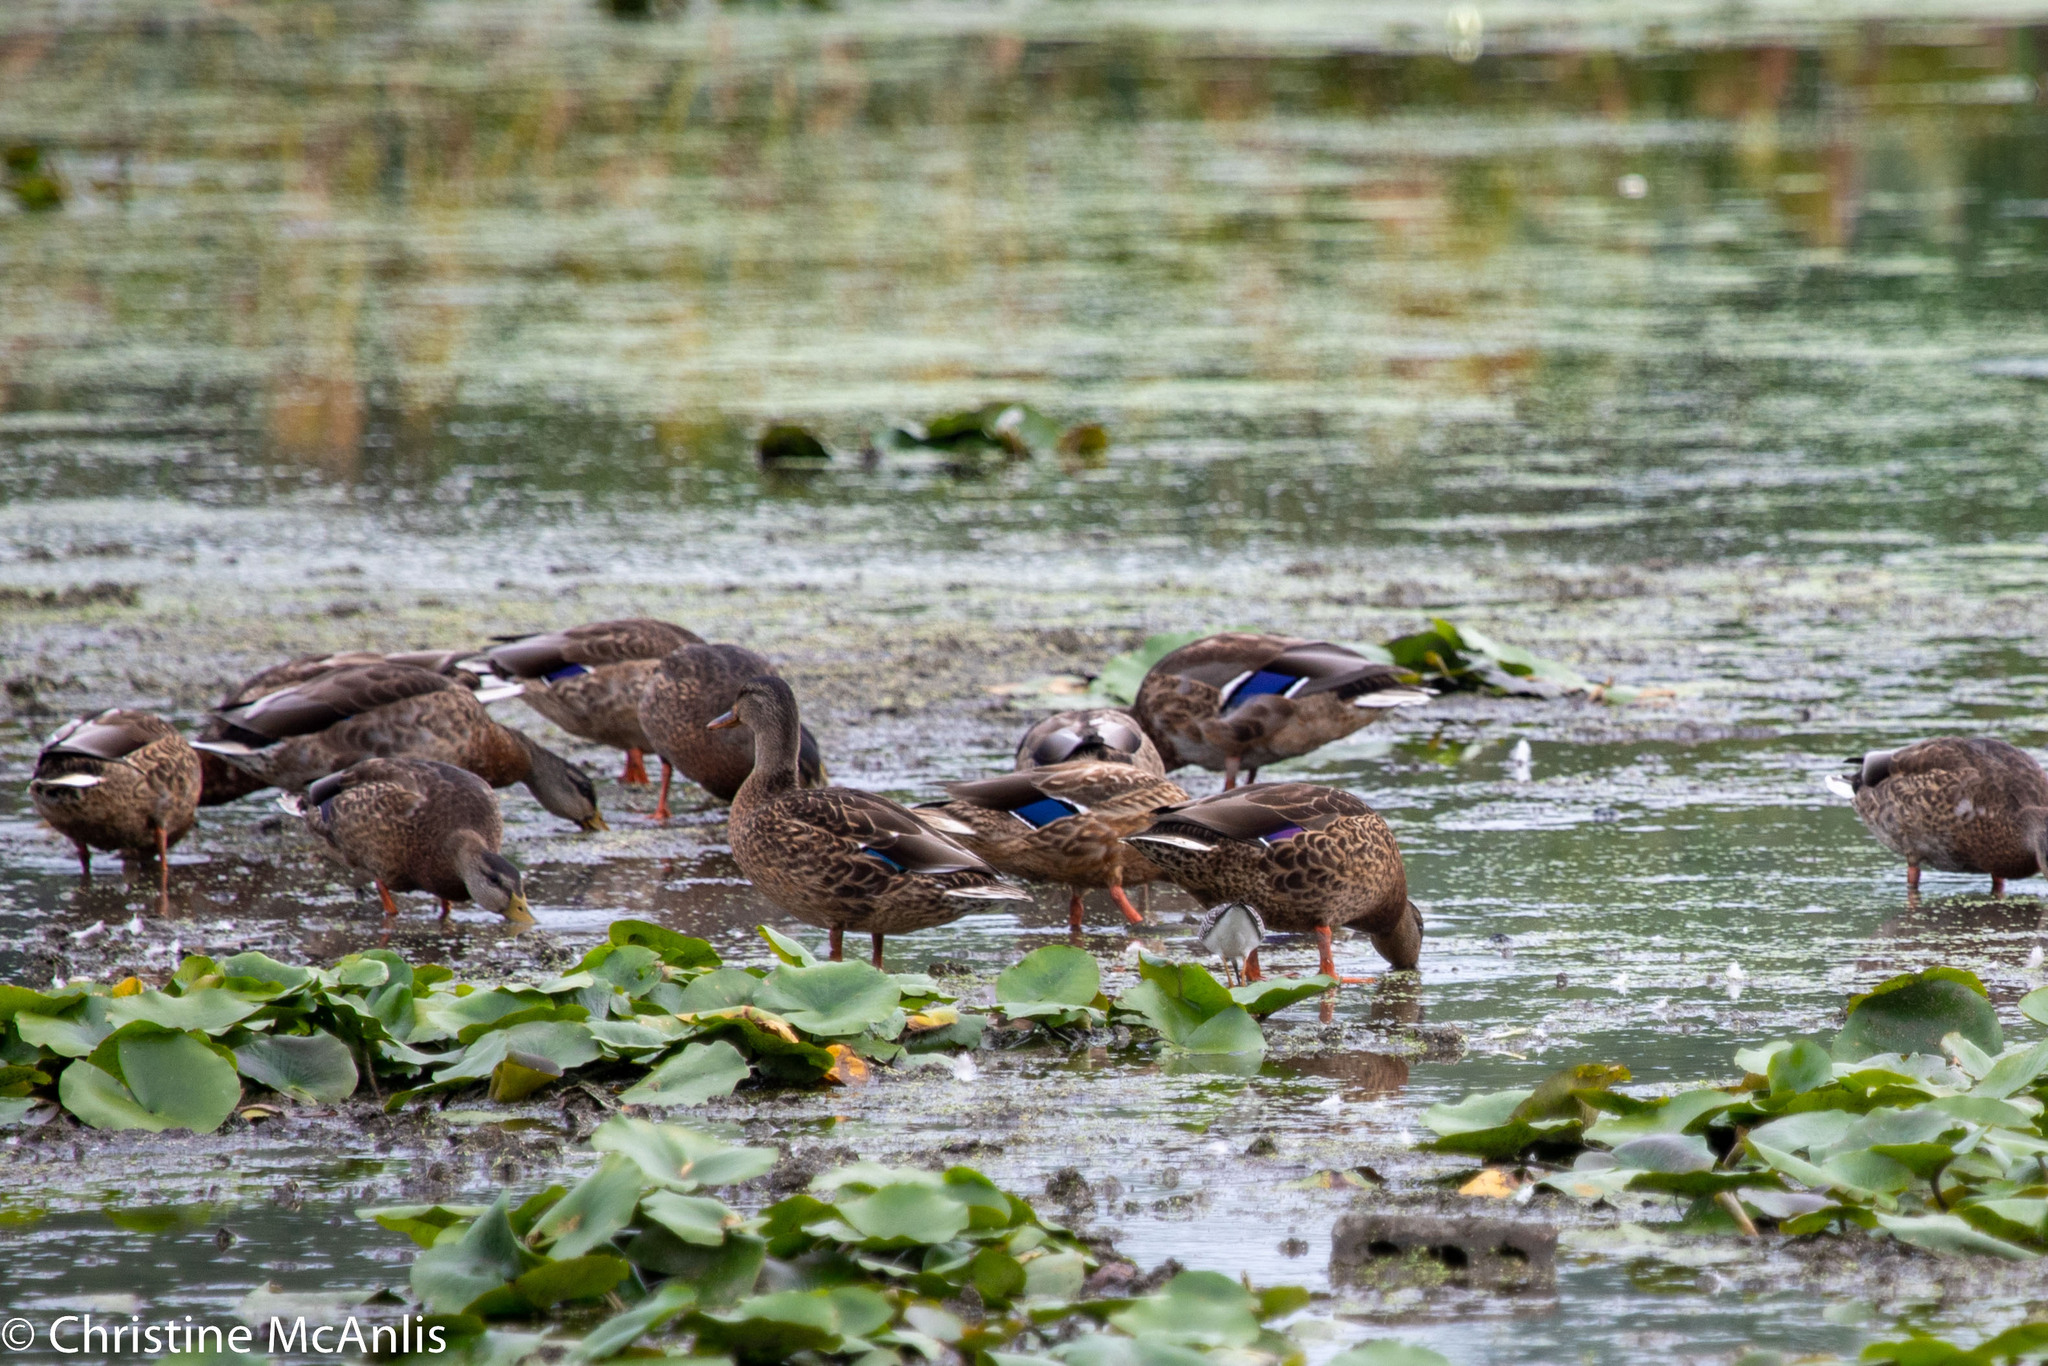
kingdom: Animalia
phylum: Chordata
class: Aves
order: Anseriformes
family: Anatidae
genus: Anas
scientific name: Anas platyrhynchos
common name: Mallard
